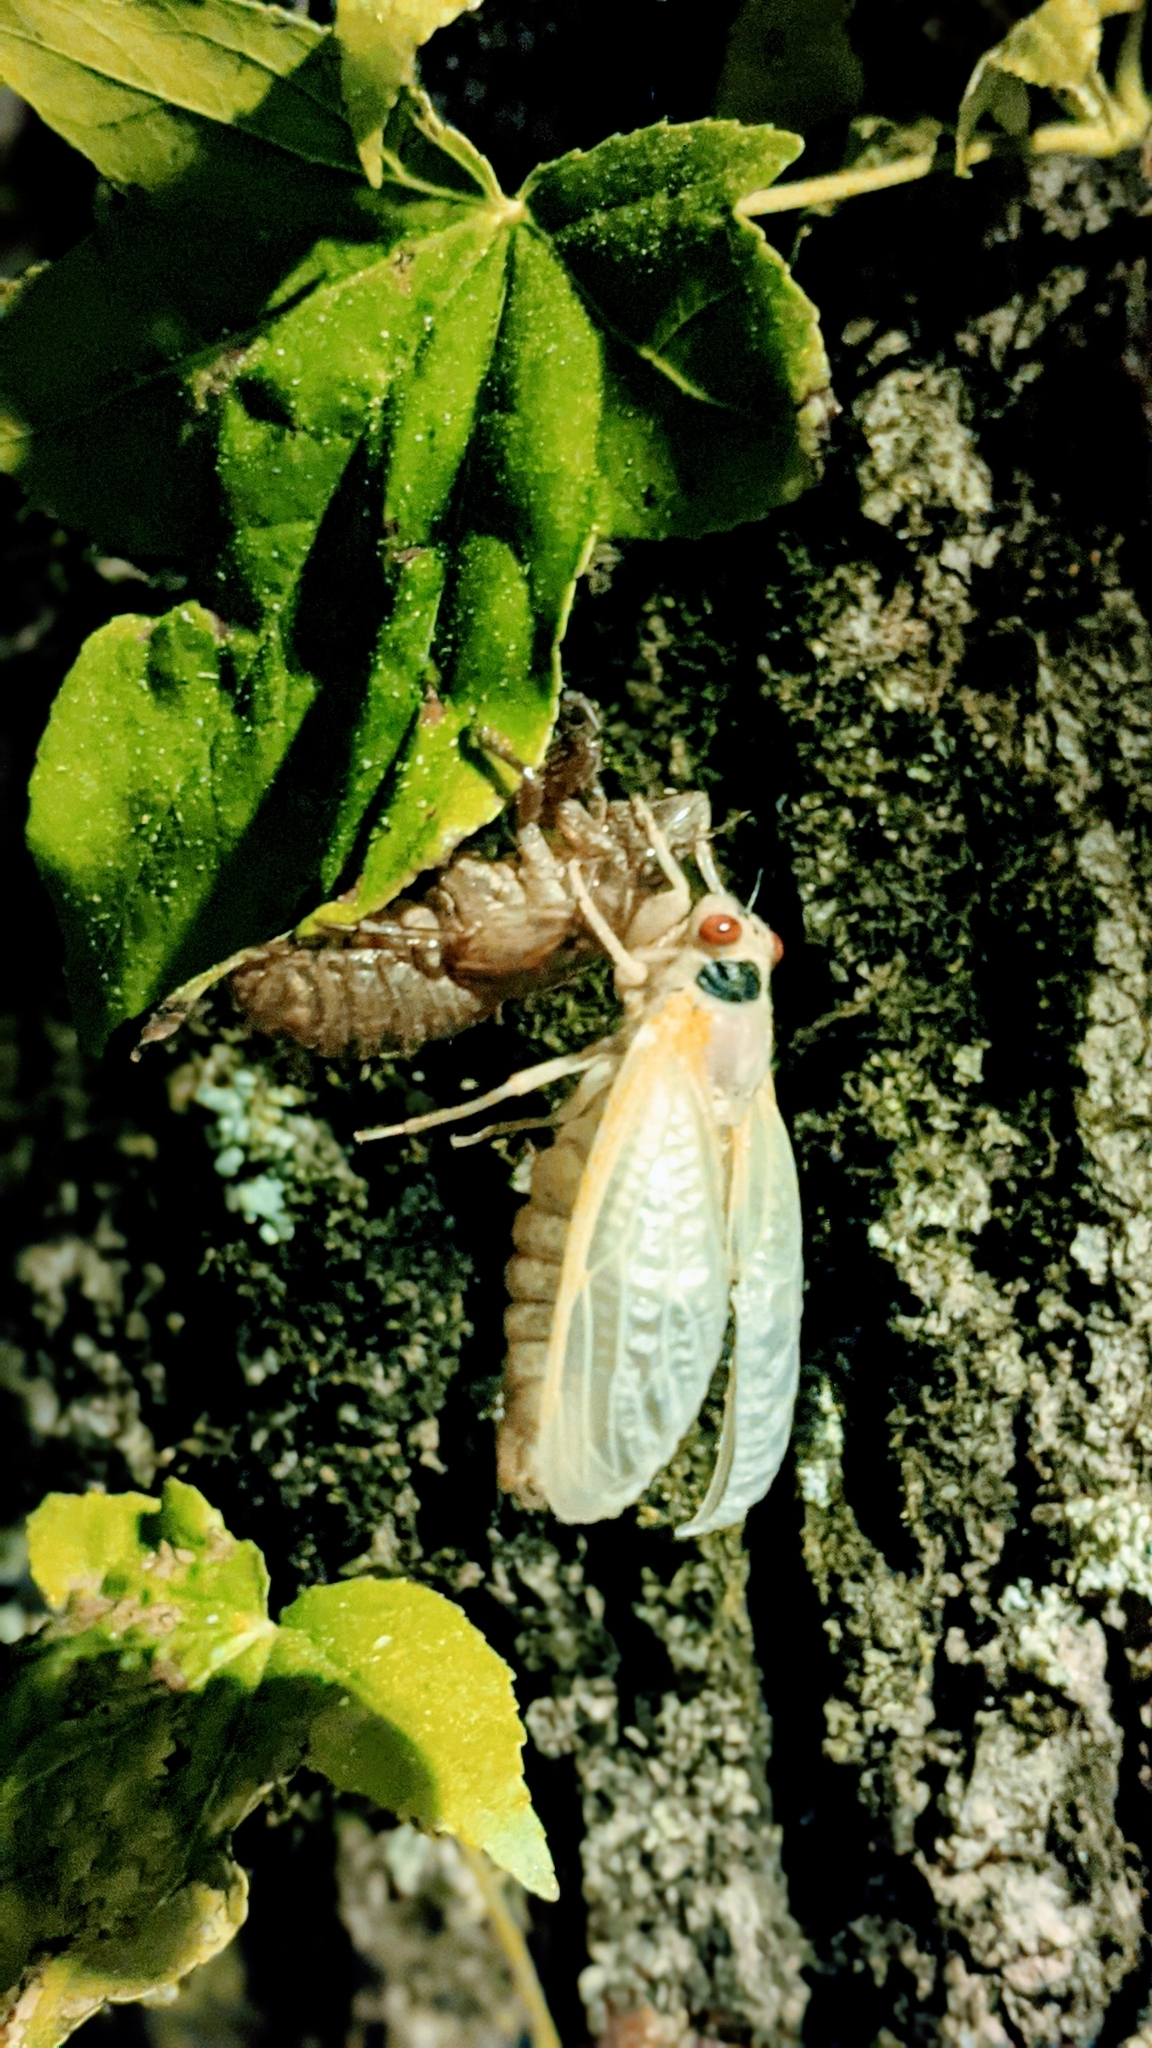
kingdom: Animalia
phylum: Arthropoda
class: Insecta
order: Hemiptera
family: Cicadidae
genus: Magicicada
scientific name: Magicicada
